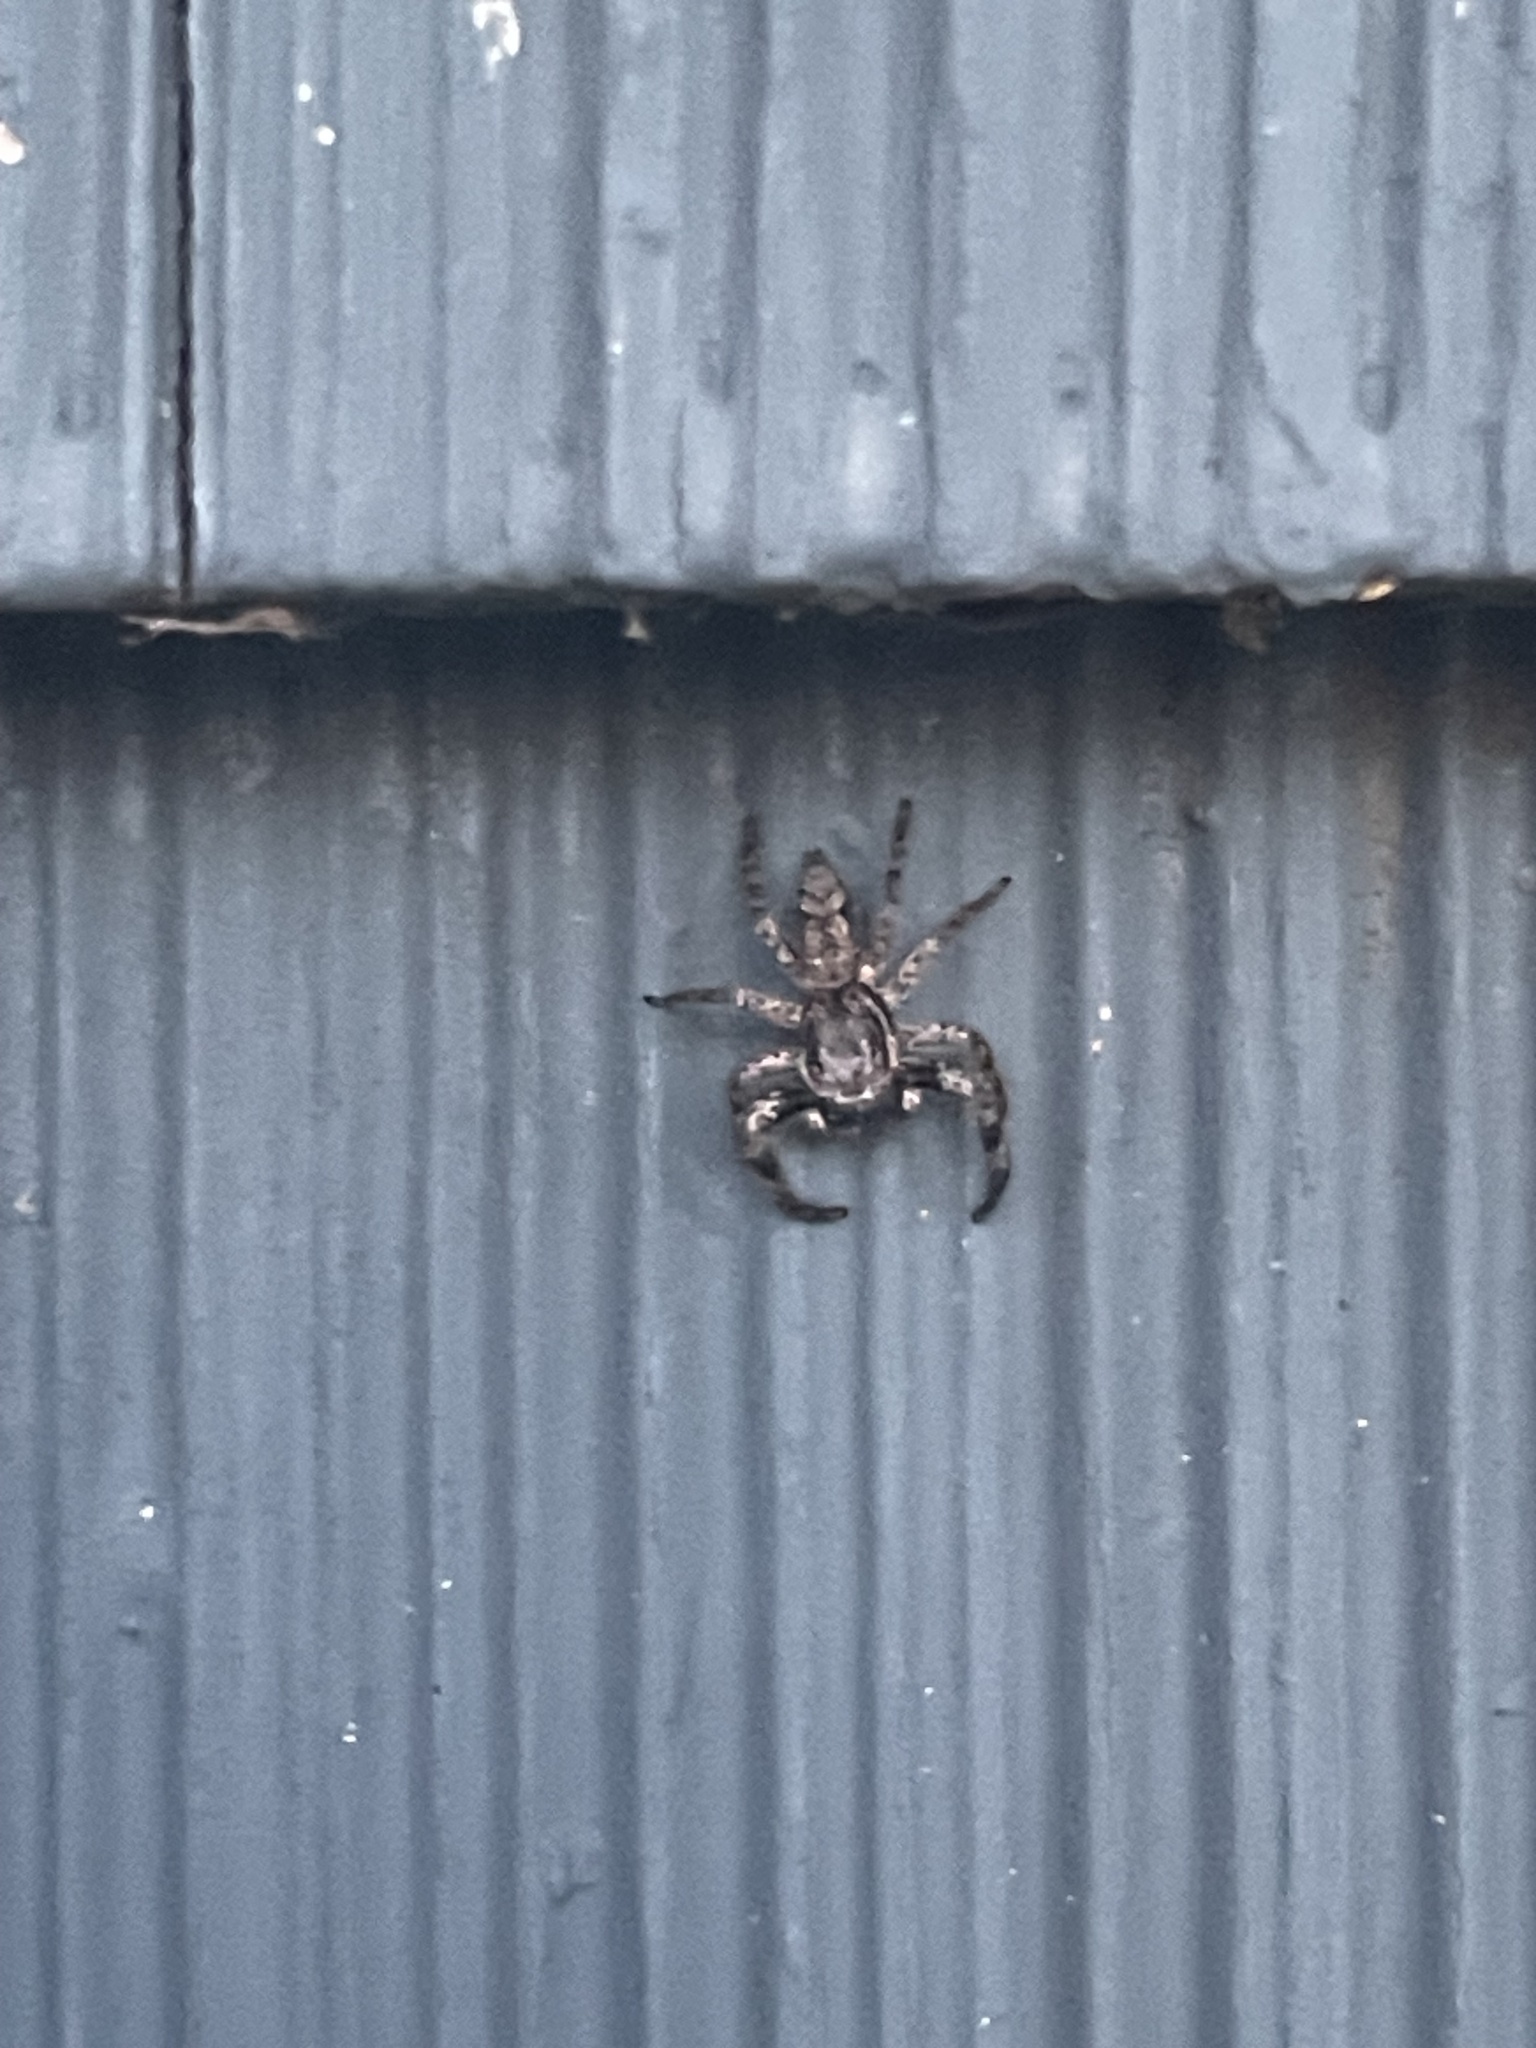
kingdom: Animalia
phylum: Arthropoda
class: Arachnida
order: Araneae
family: Salticidae
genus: Platycryptus
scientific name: Platycryptus undatus
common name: Tan jumping spider
